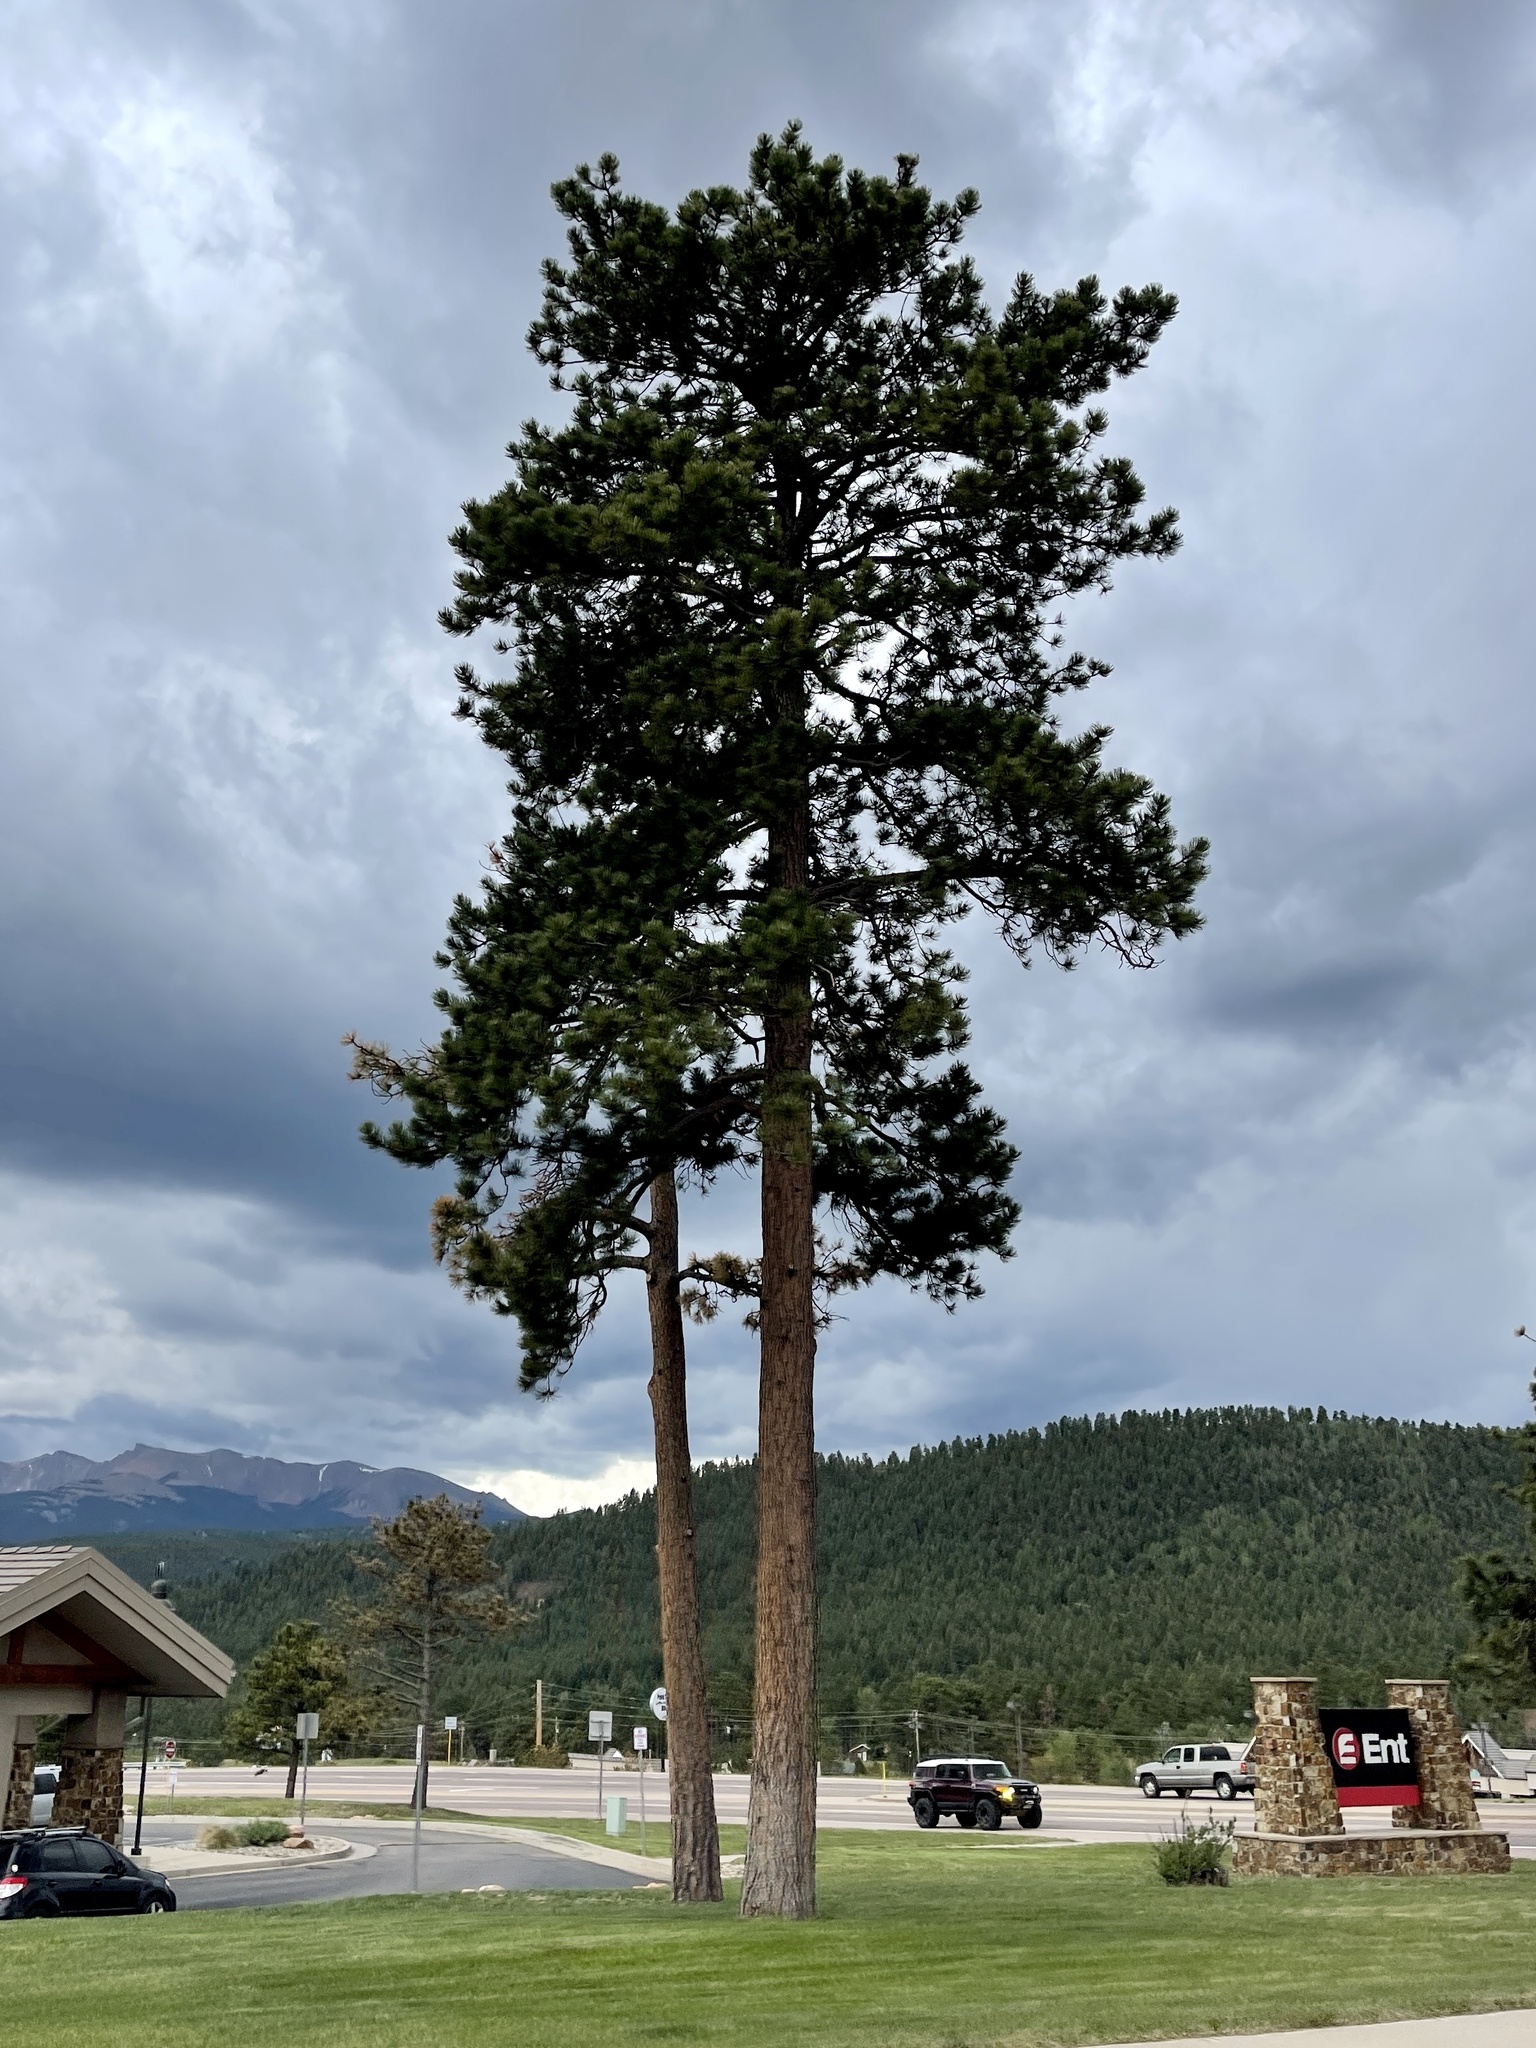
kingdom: Plantae
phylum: Tracheophyta
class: Pinopsida
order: Pinales
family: Pinaceae
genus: Pinus
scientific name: Pinus ponderosa
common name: Western yellow-pine
